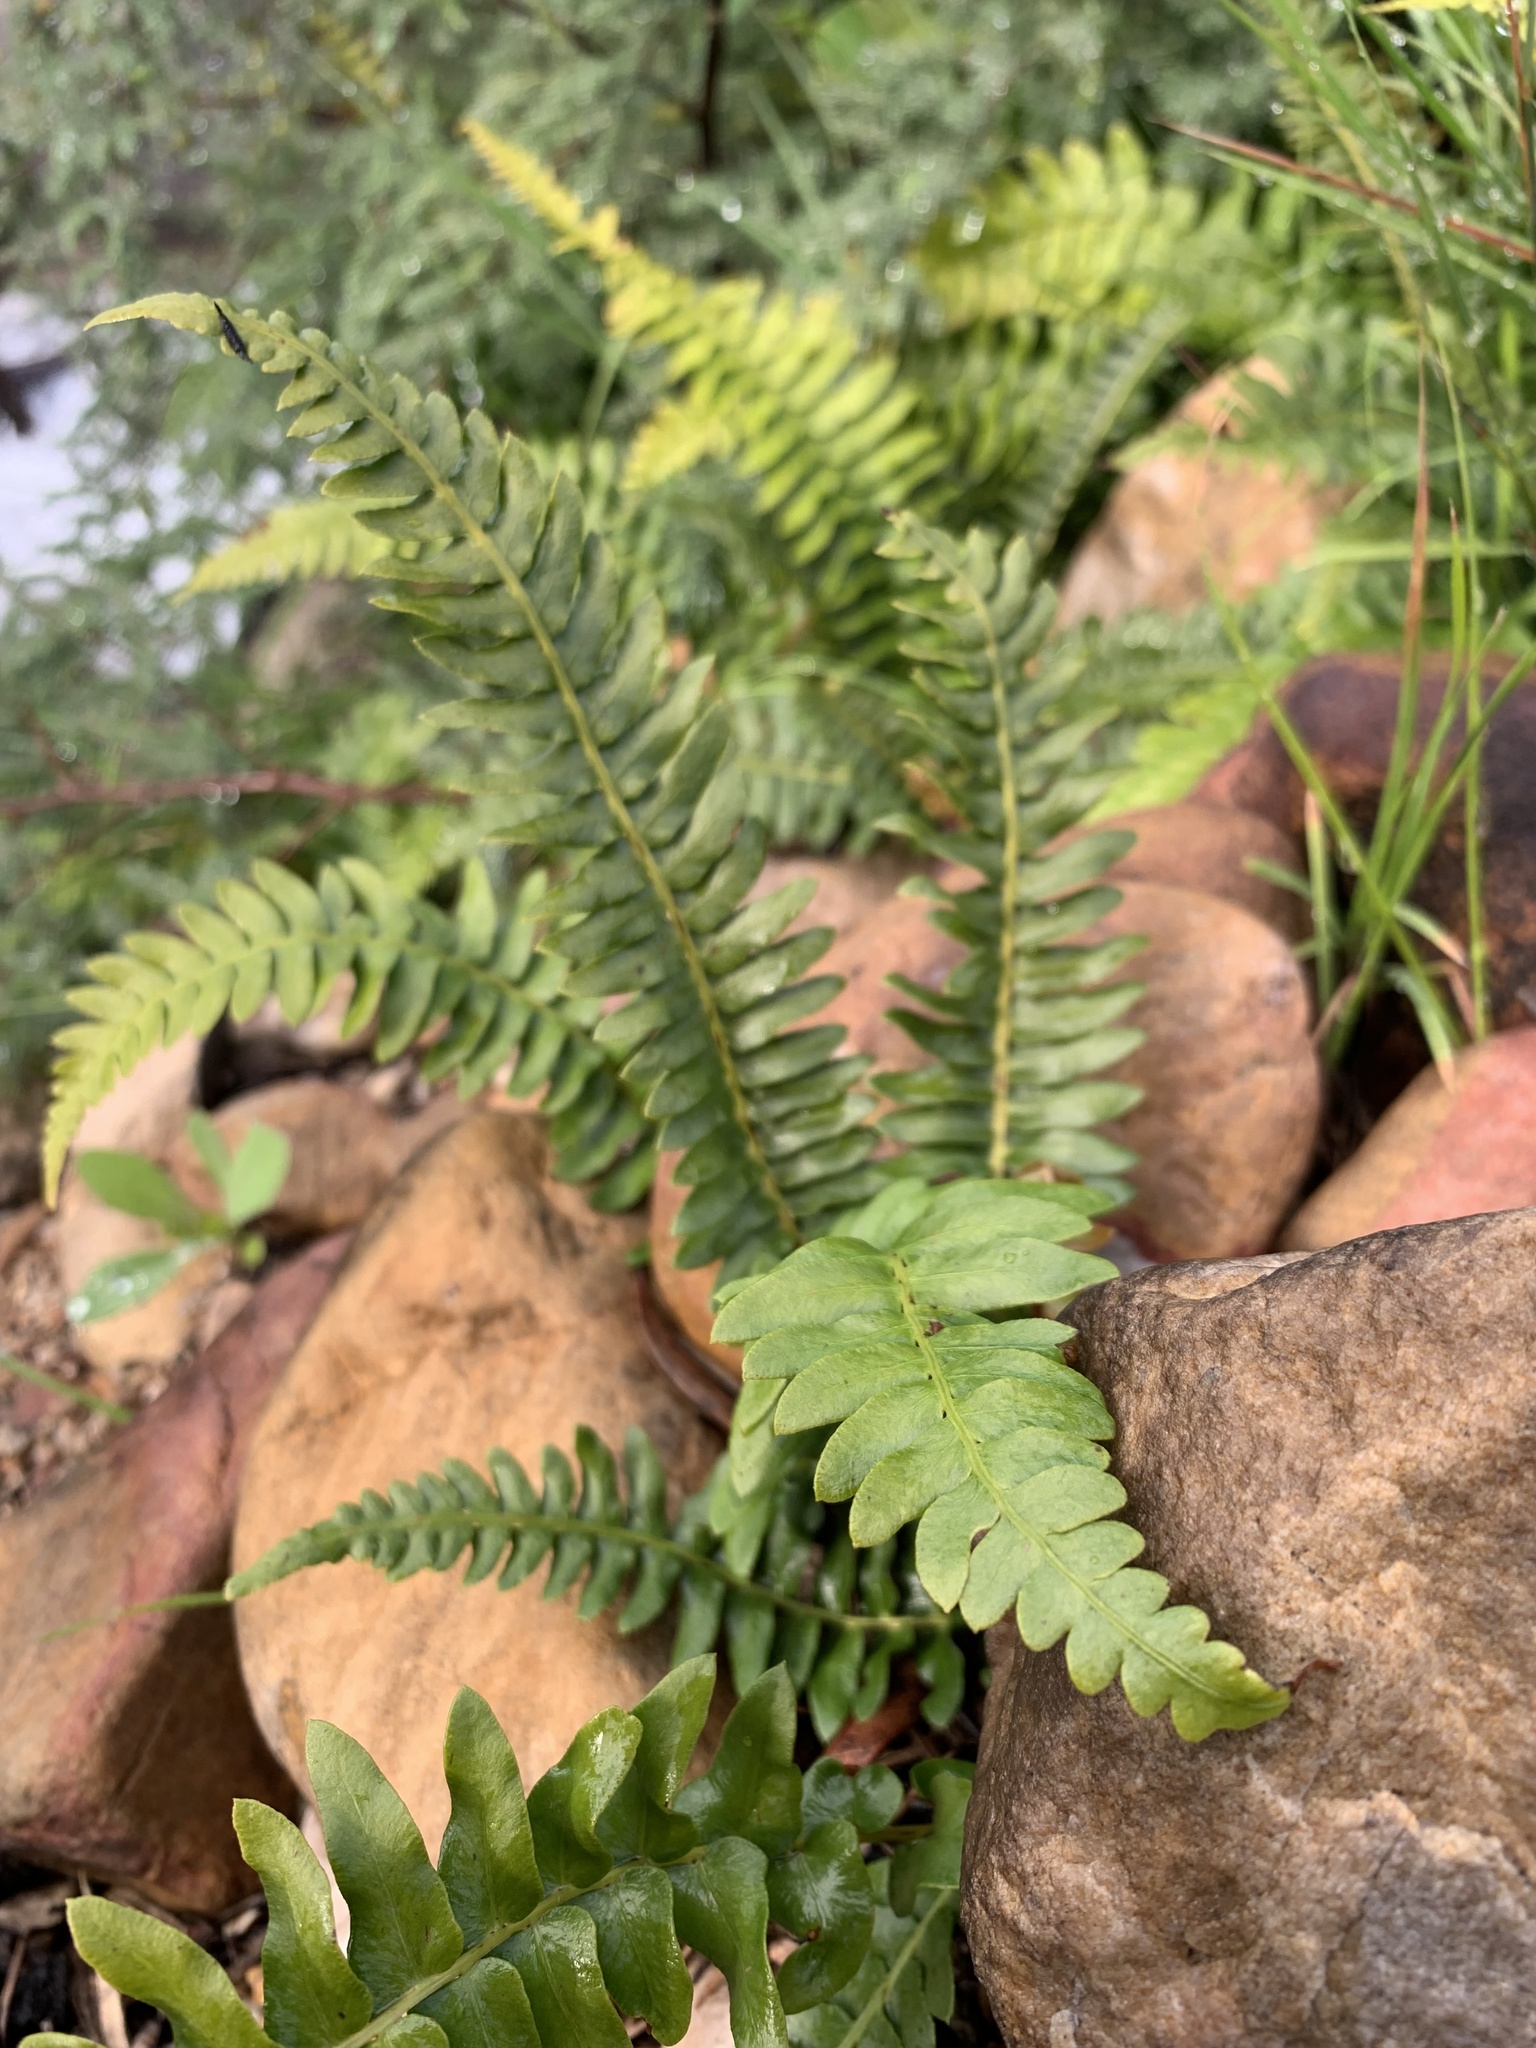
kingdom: Plantae
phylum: Tracheophyta
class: Polypodiopsida
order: Polypodiales
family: Blechnaceae
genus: Blechnum
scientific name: Blechnum punctulatum
